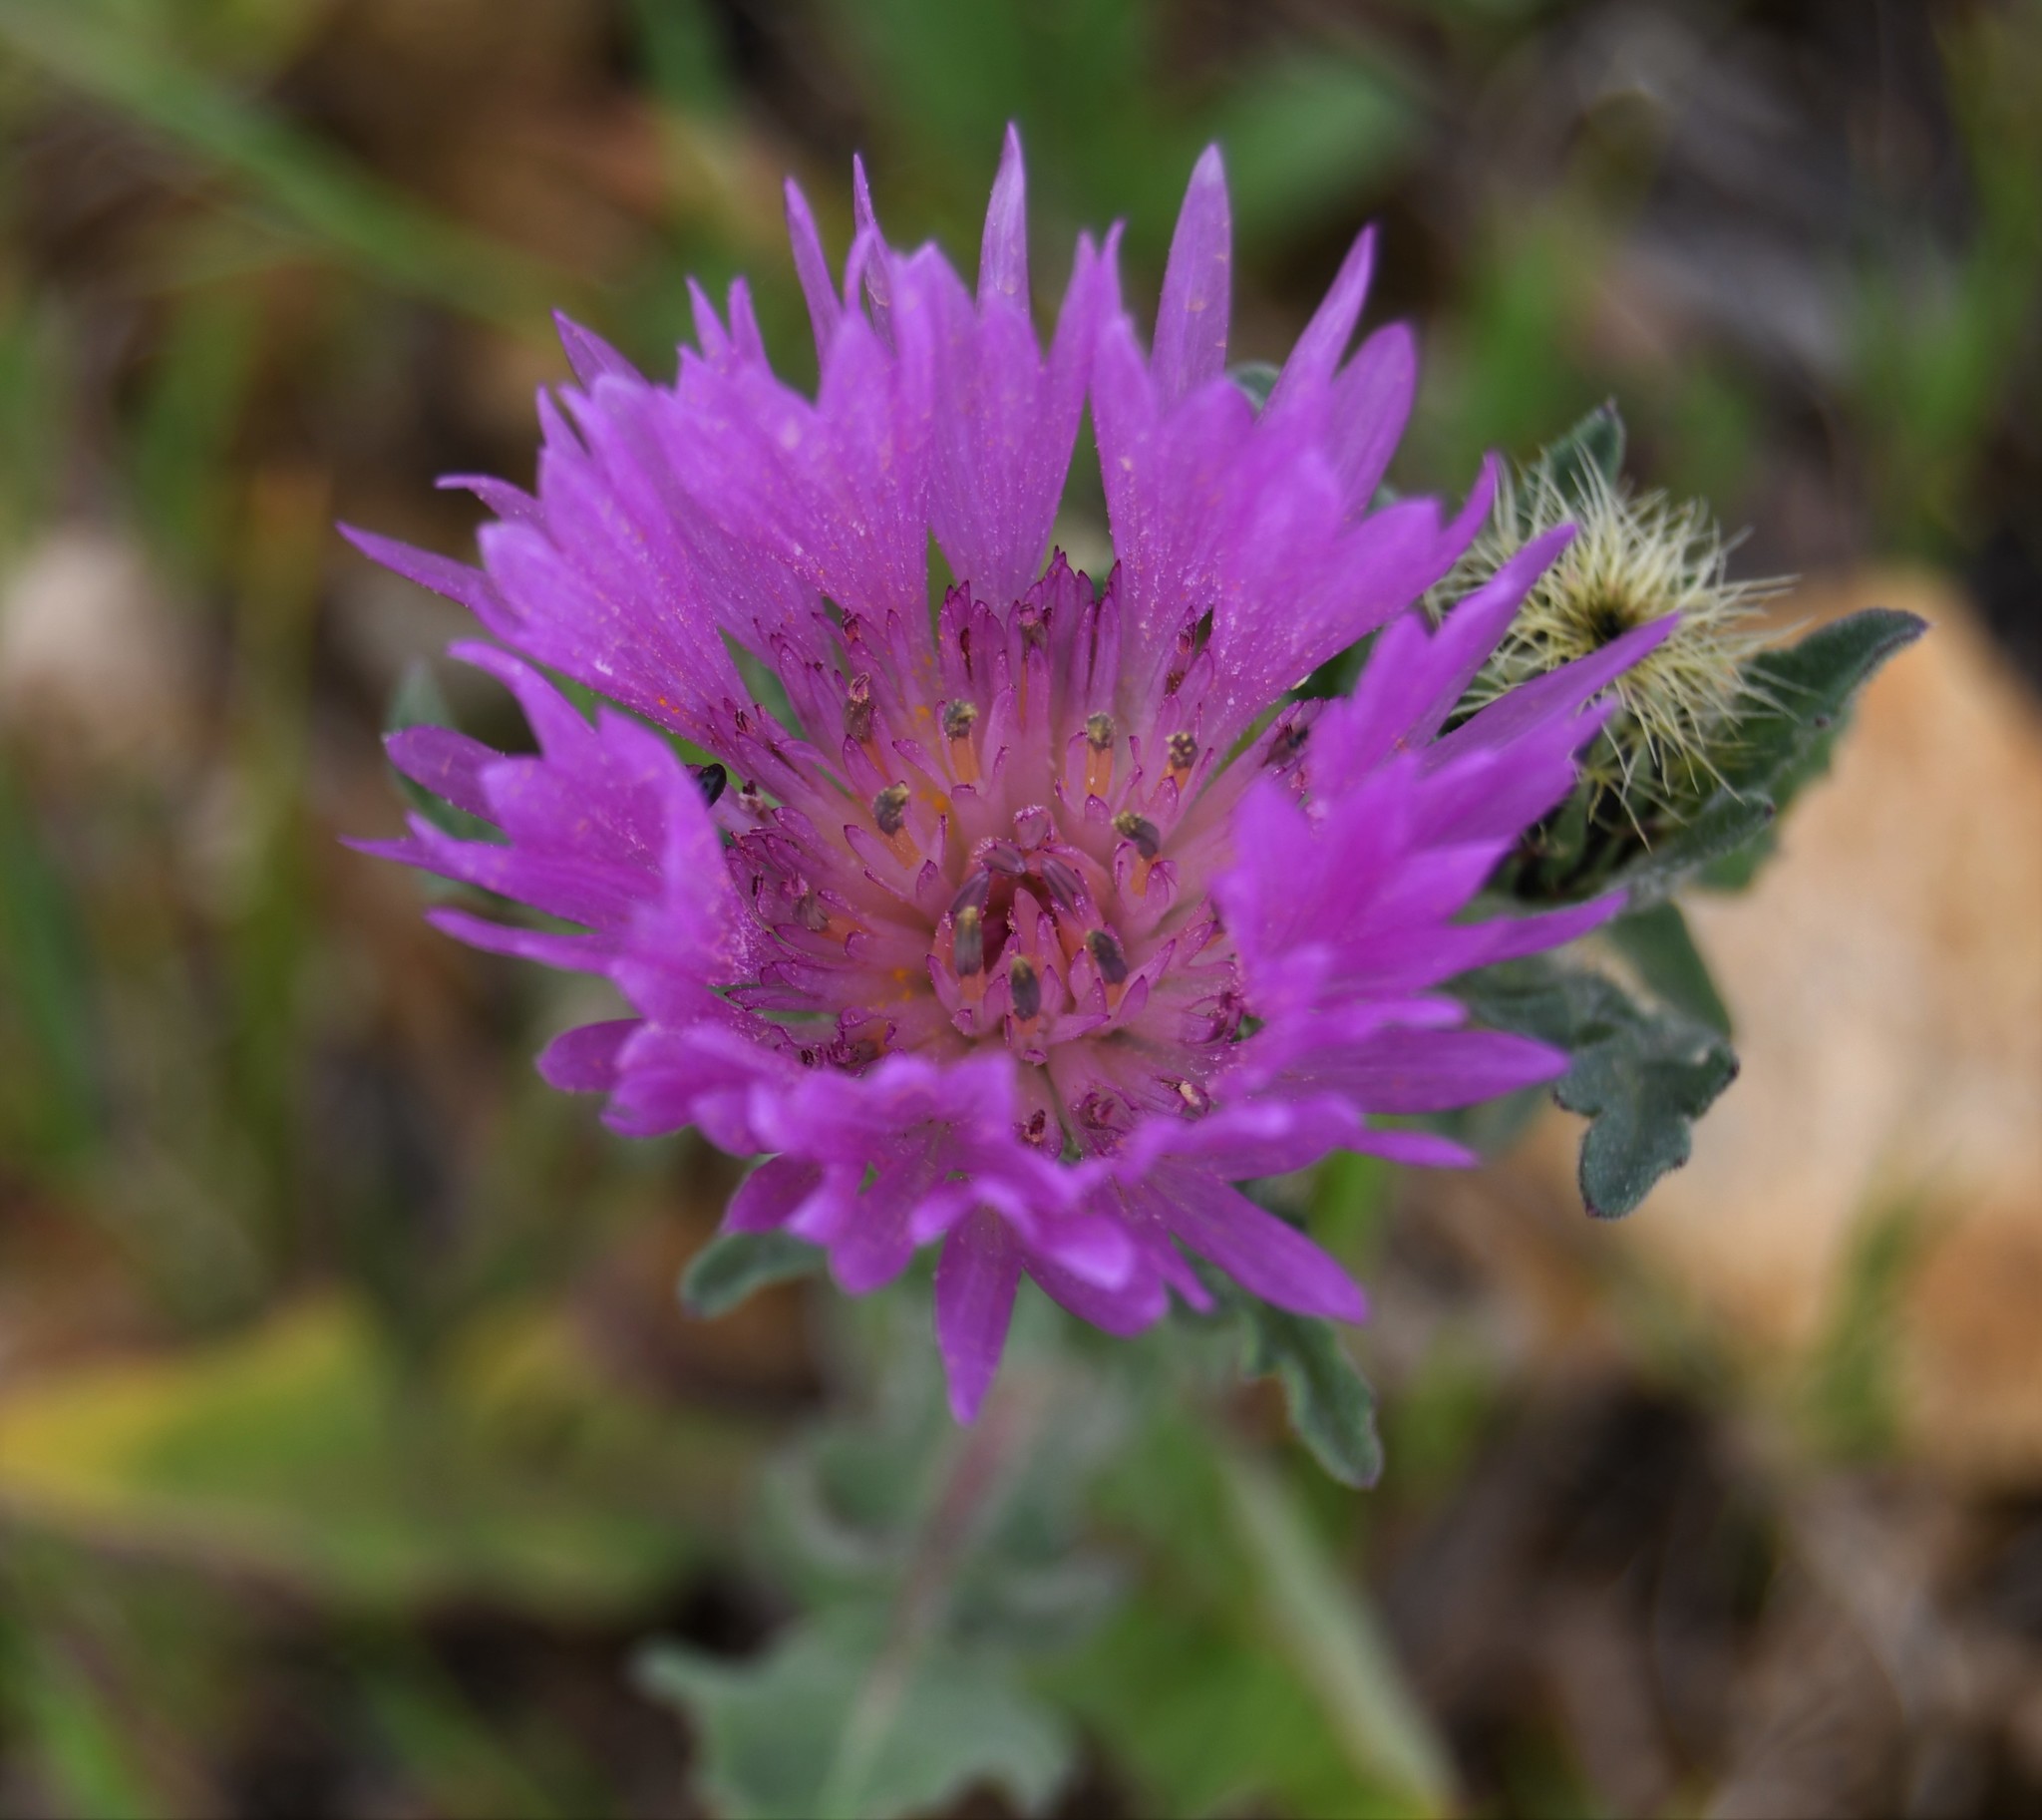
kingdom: Plantae
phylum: Tracheophyta
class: Magnoliopsida
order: Asterales
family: Asteraceae
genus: Centaurea
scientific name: Centaurea pullata
